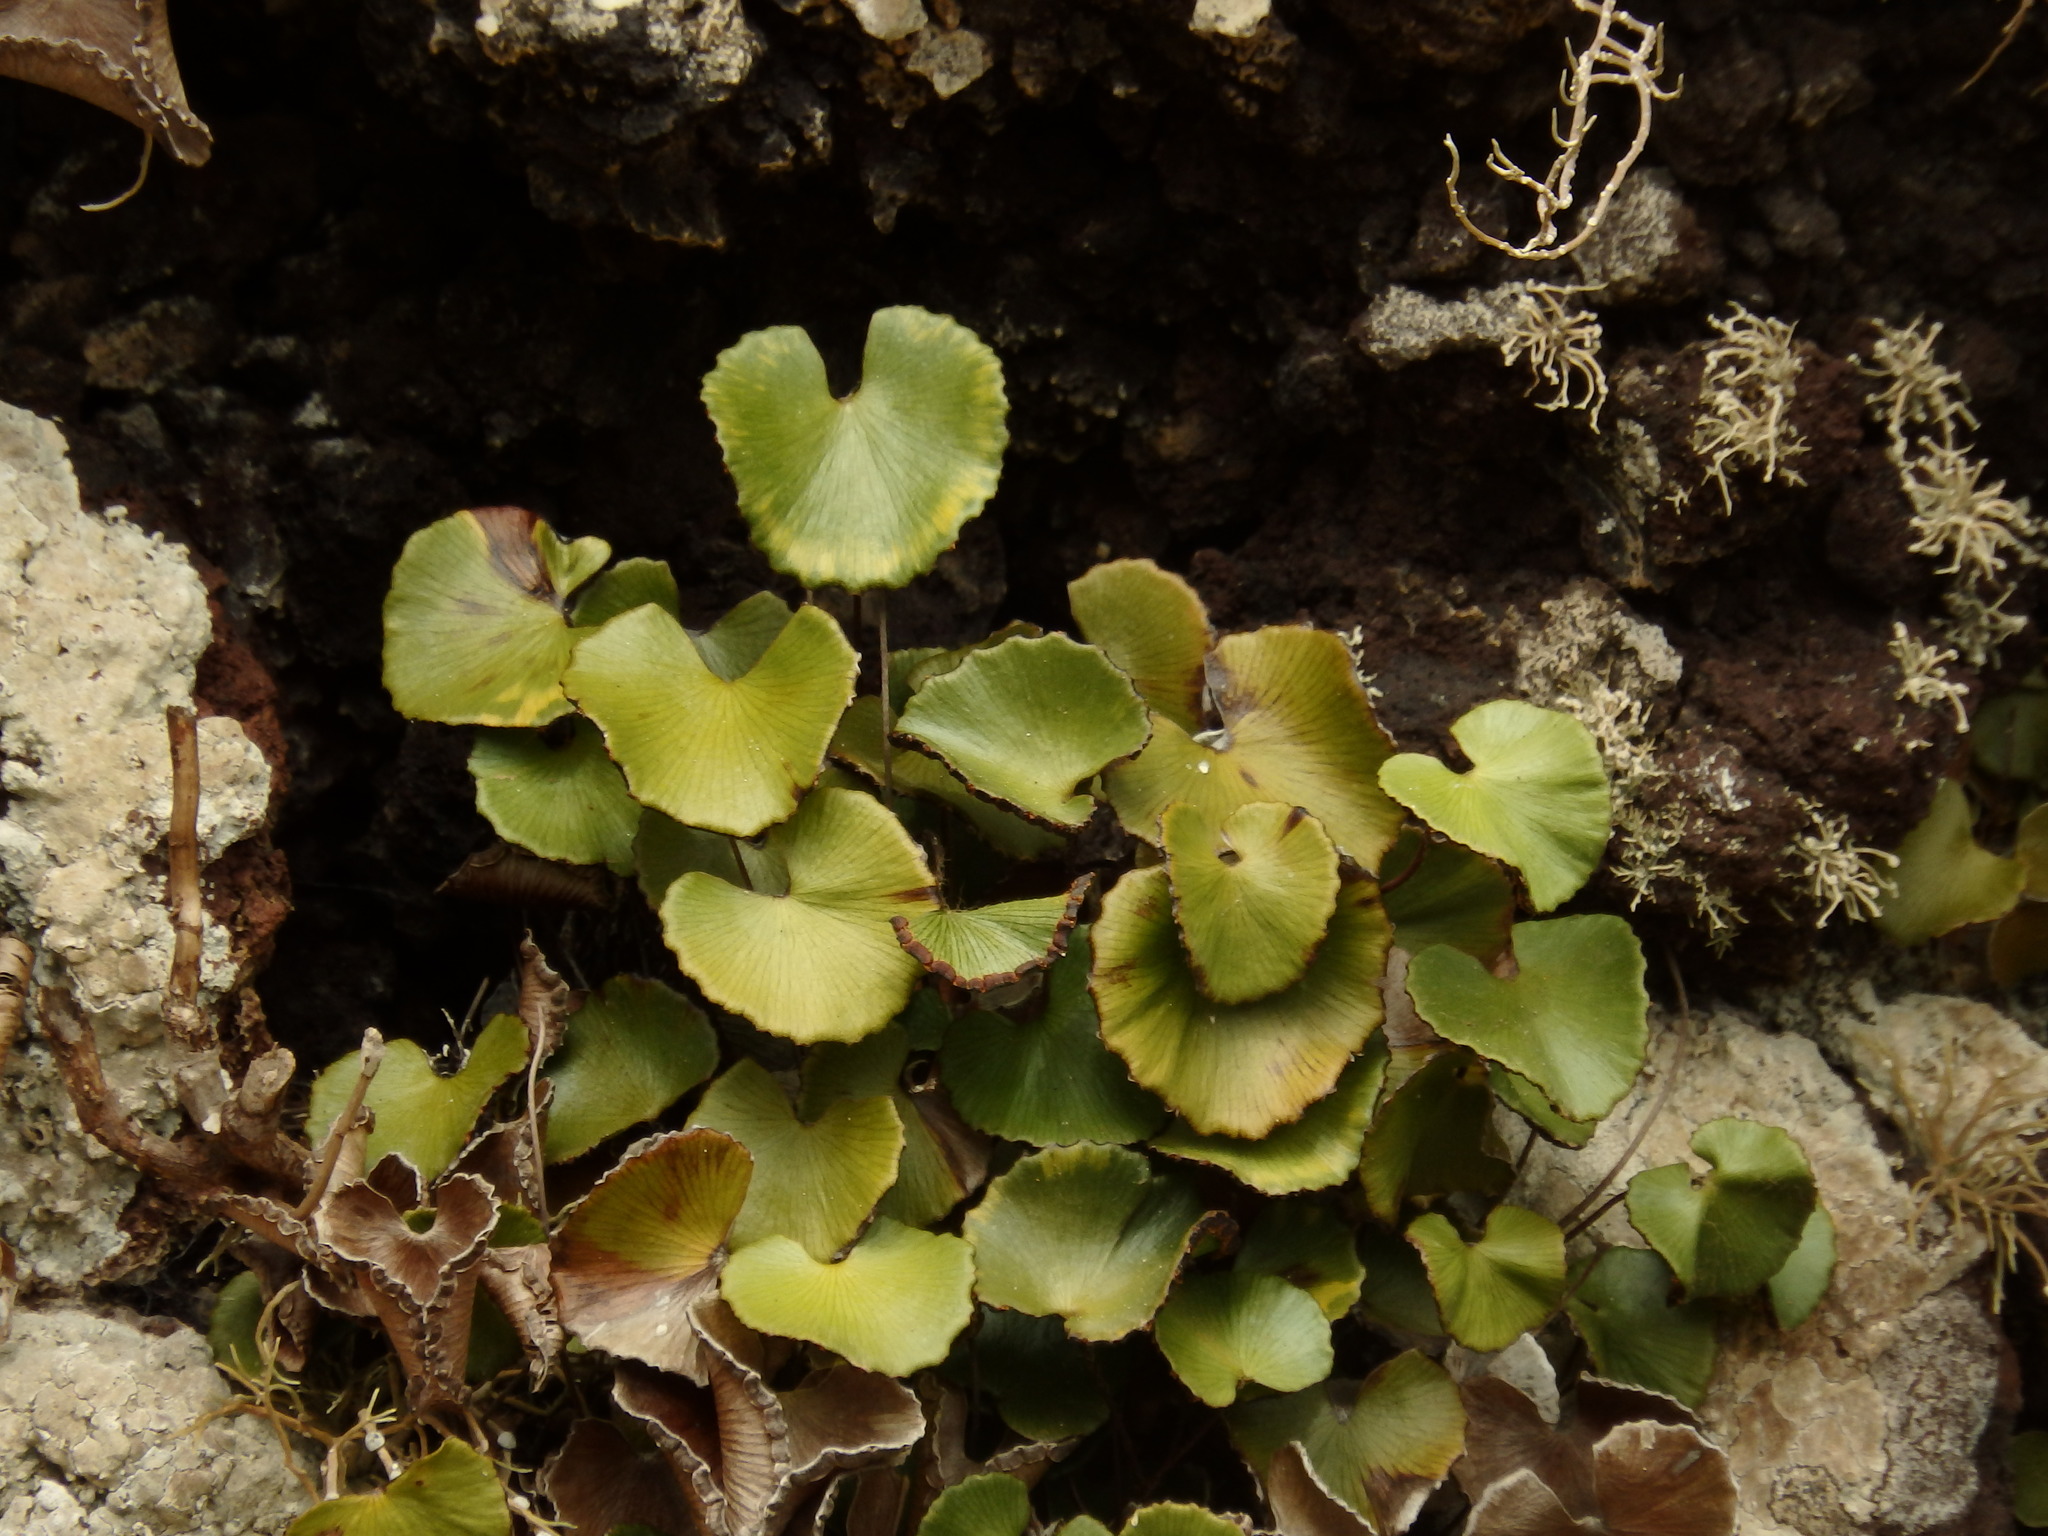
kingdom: Plantae
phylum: Tracheophyta
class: Polypodiopsida
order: Polypodiales
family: Pteridaceae
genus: Adiantum
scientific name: Adiantum reniforme
